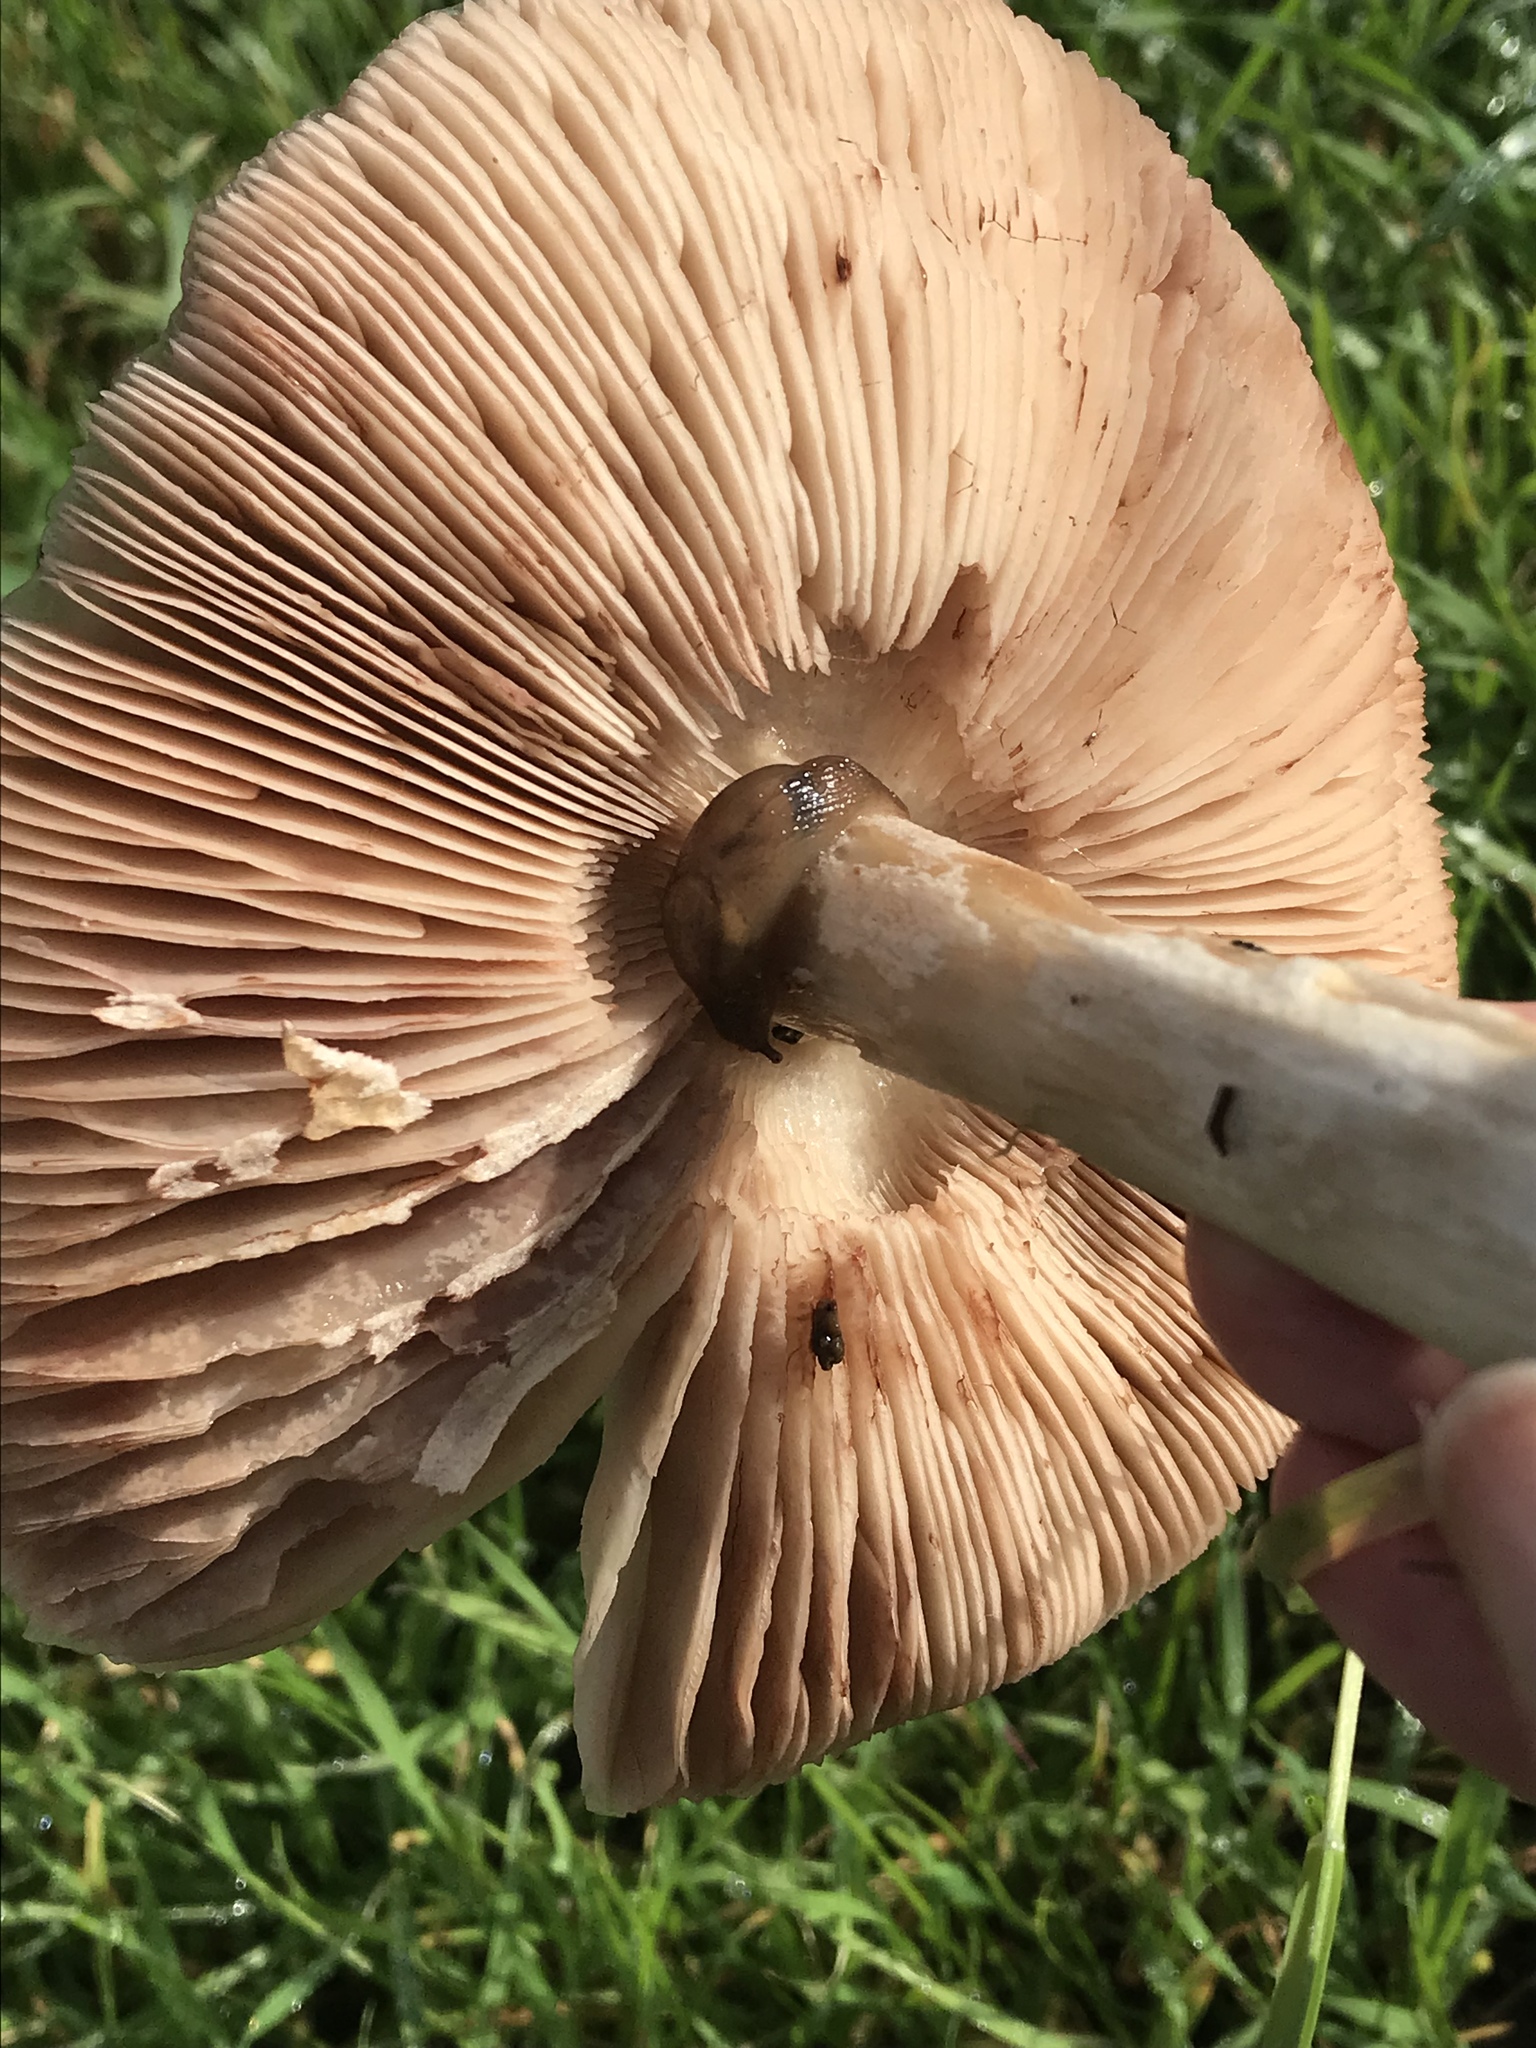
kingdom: Fungi
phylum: Basidiomycota
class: Agaricomycetes
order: Agaricales
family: Pluteaceae
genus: Volvopluteus
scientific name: Volvopluteus gloiocephalus
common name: Stubble rosegill
